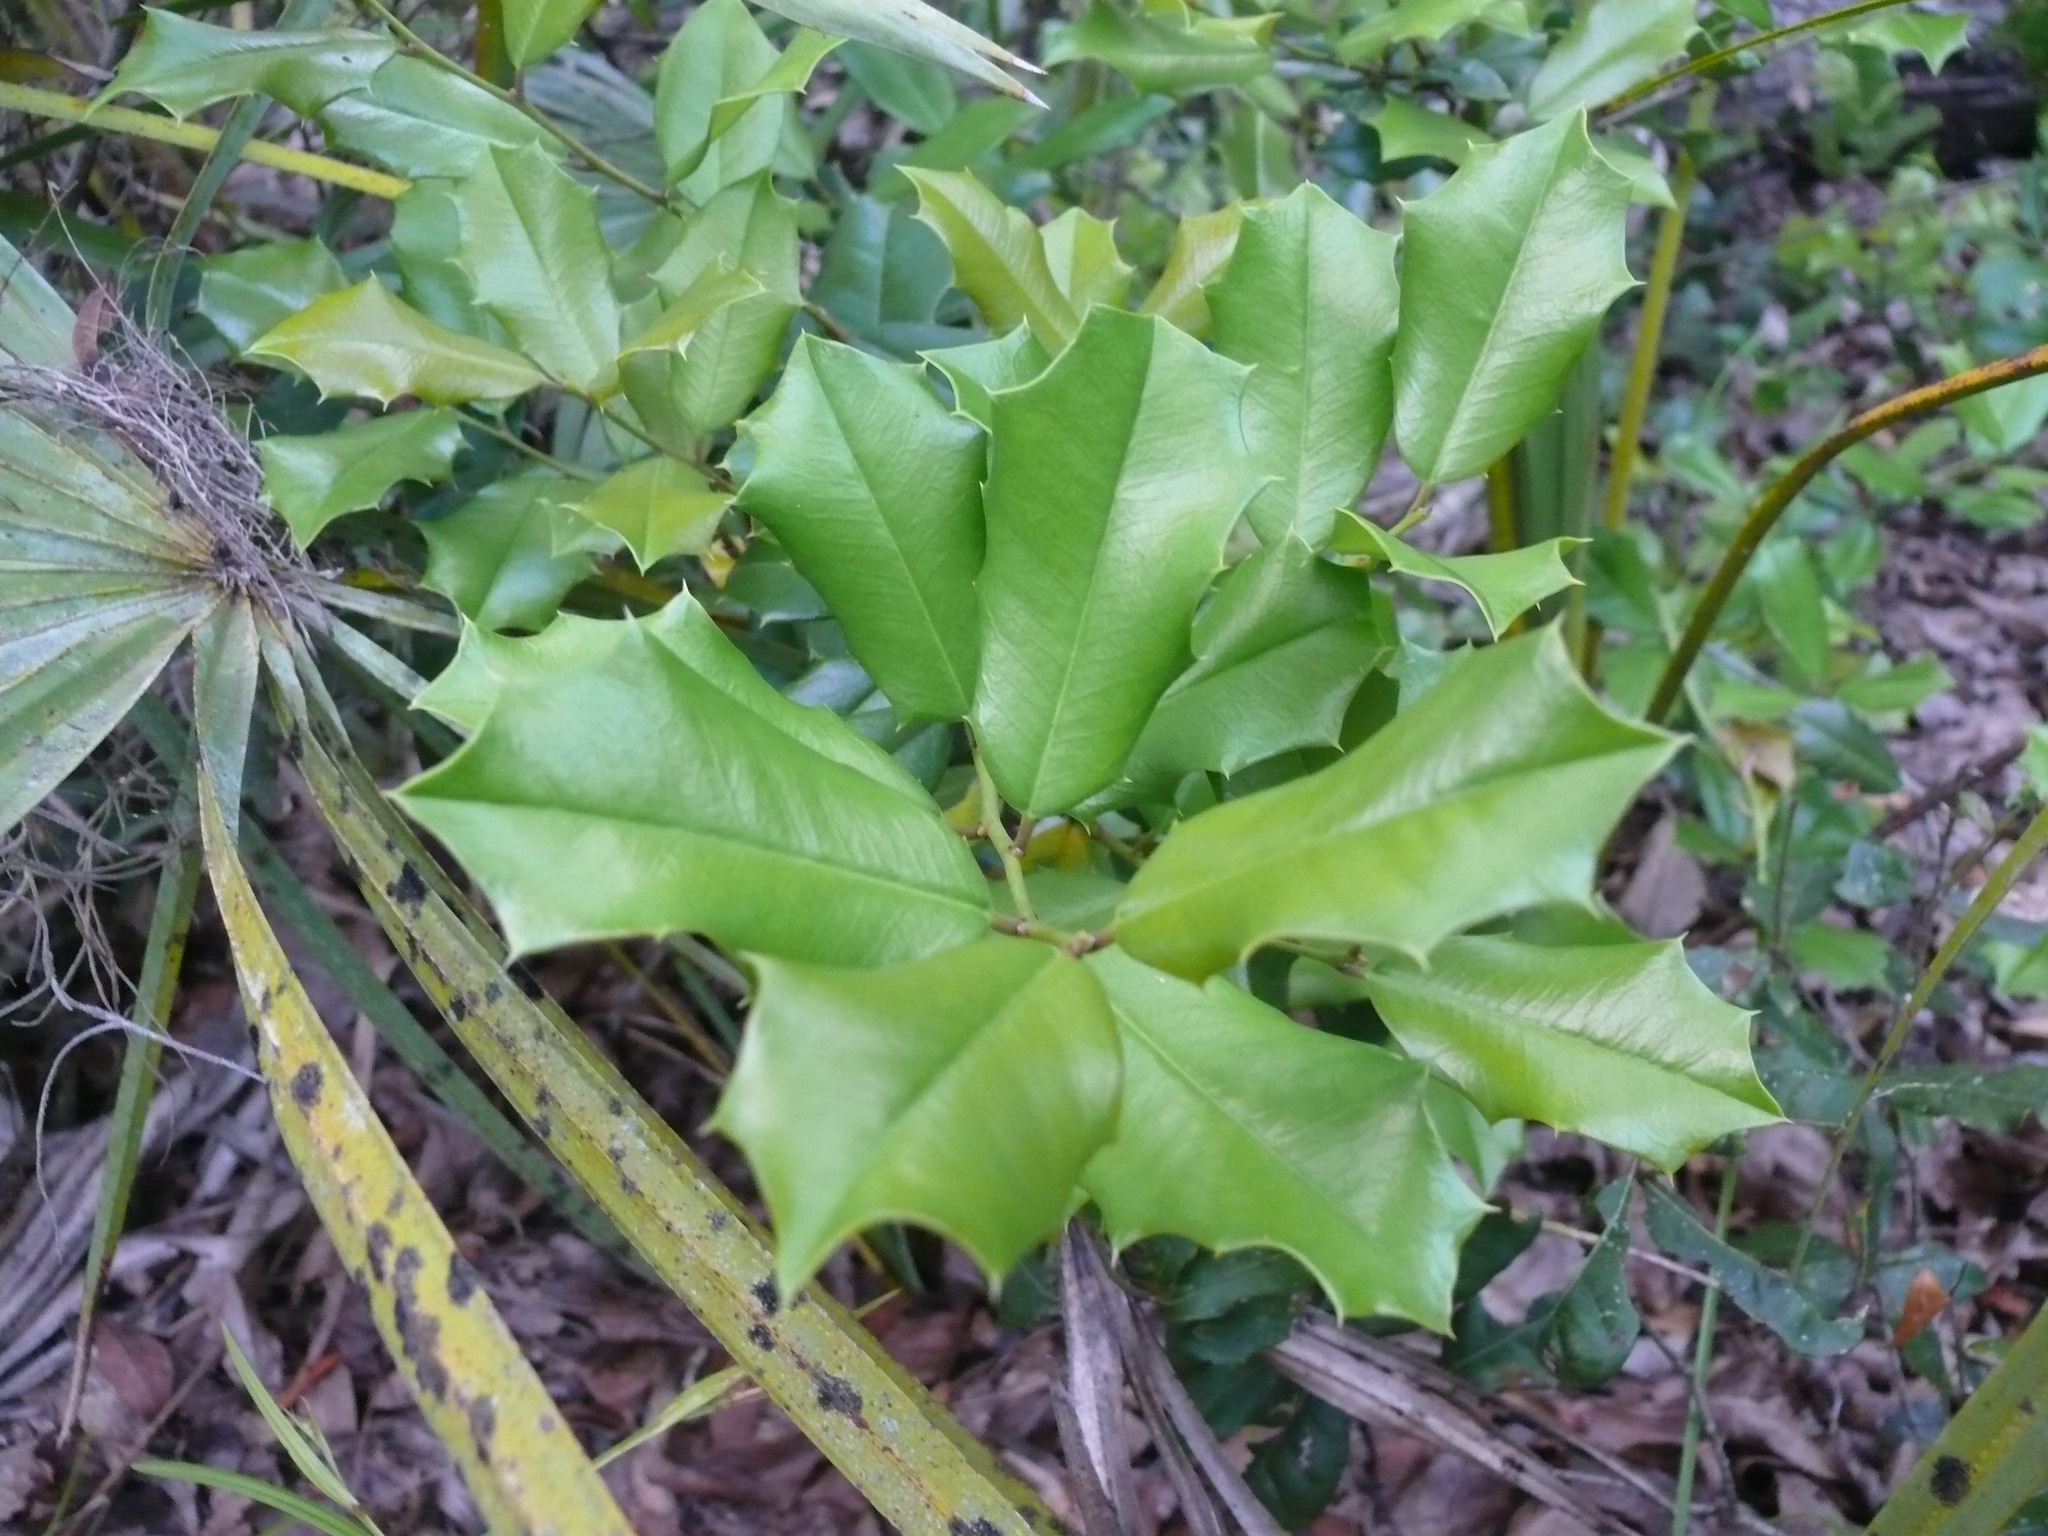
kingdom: Plantae
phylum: Tracheophyta
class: Magnoliopsida
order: Aquifoliales
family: Aquifoliaceae
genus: Ilex
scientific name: Ilex opaca
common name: American holly
